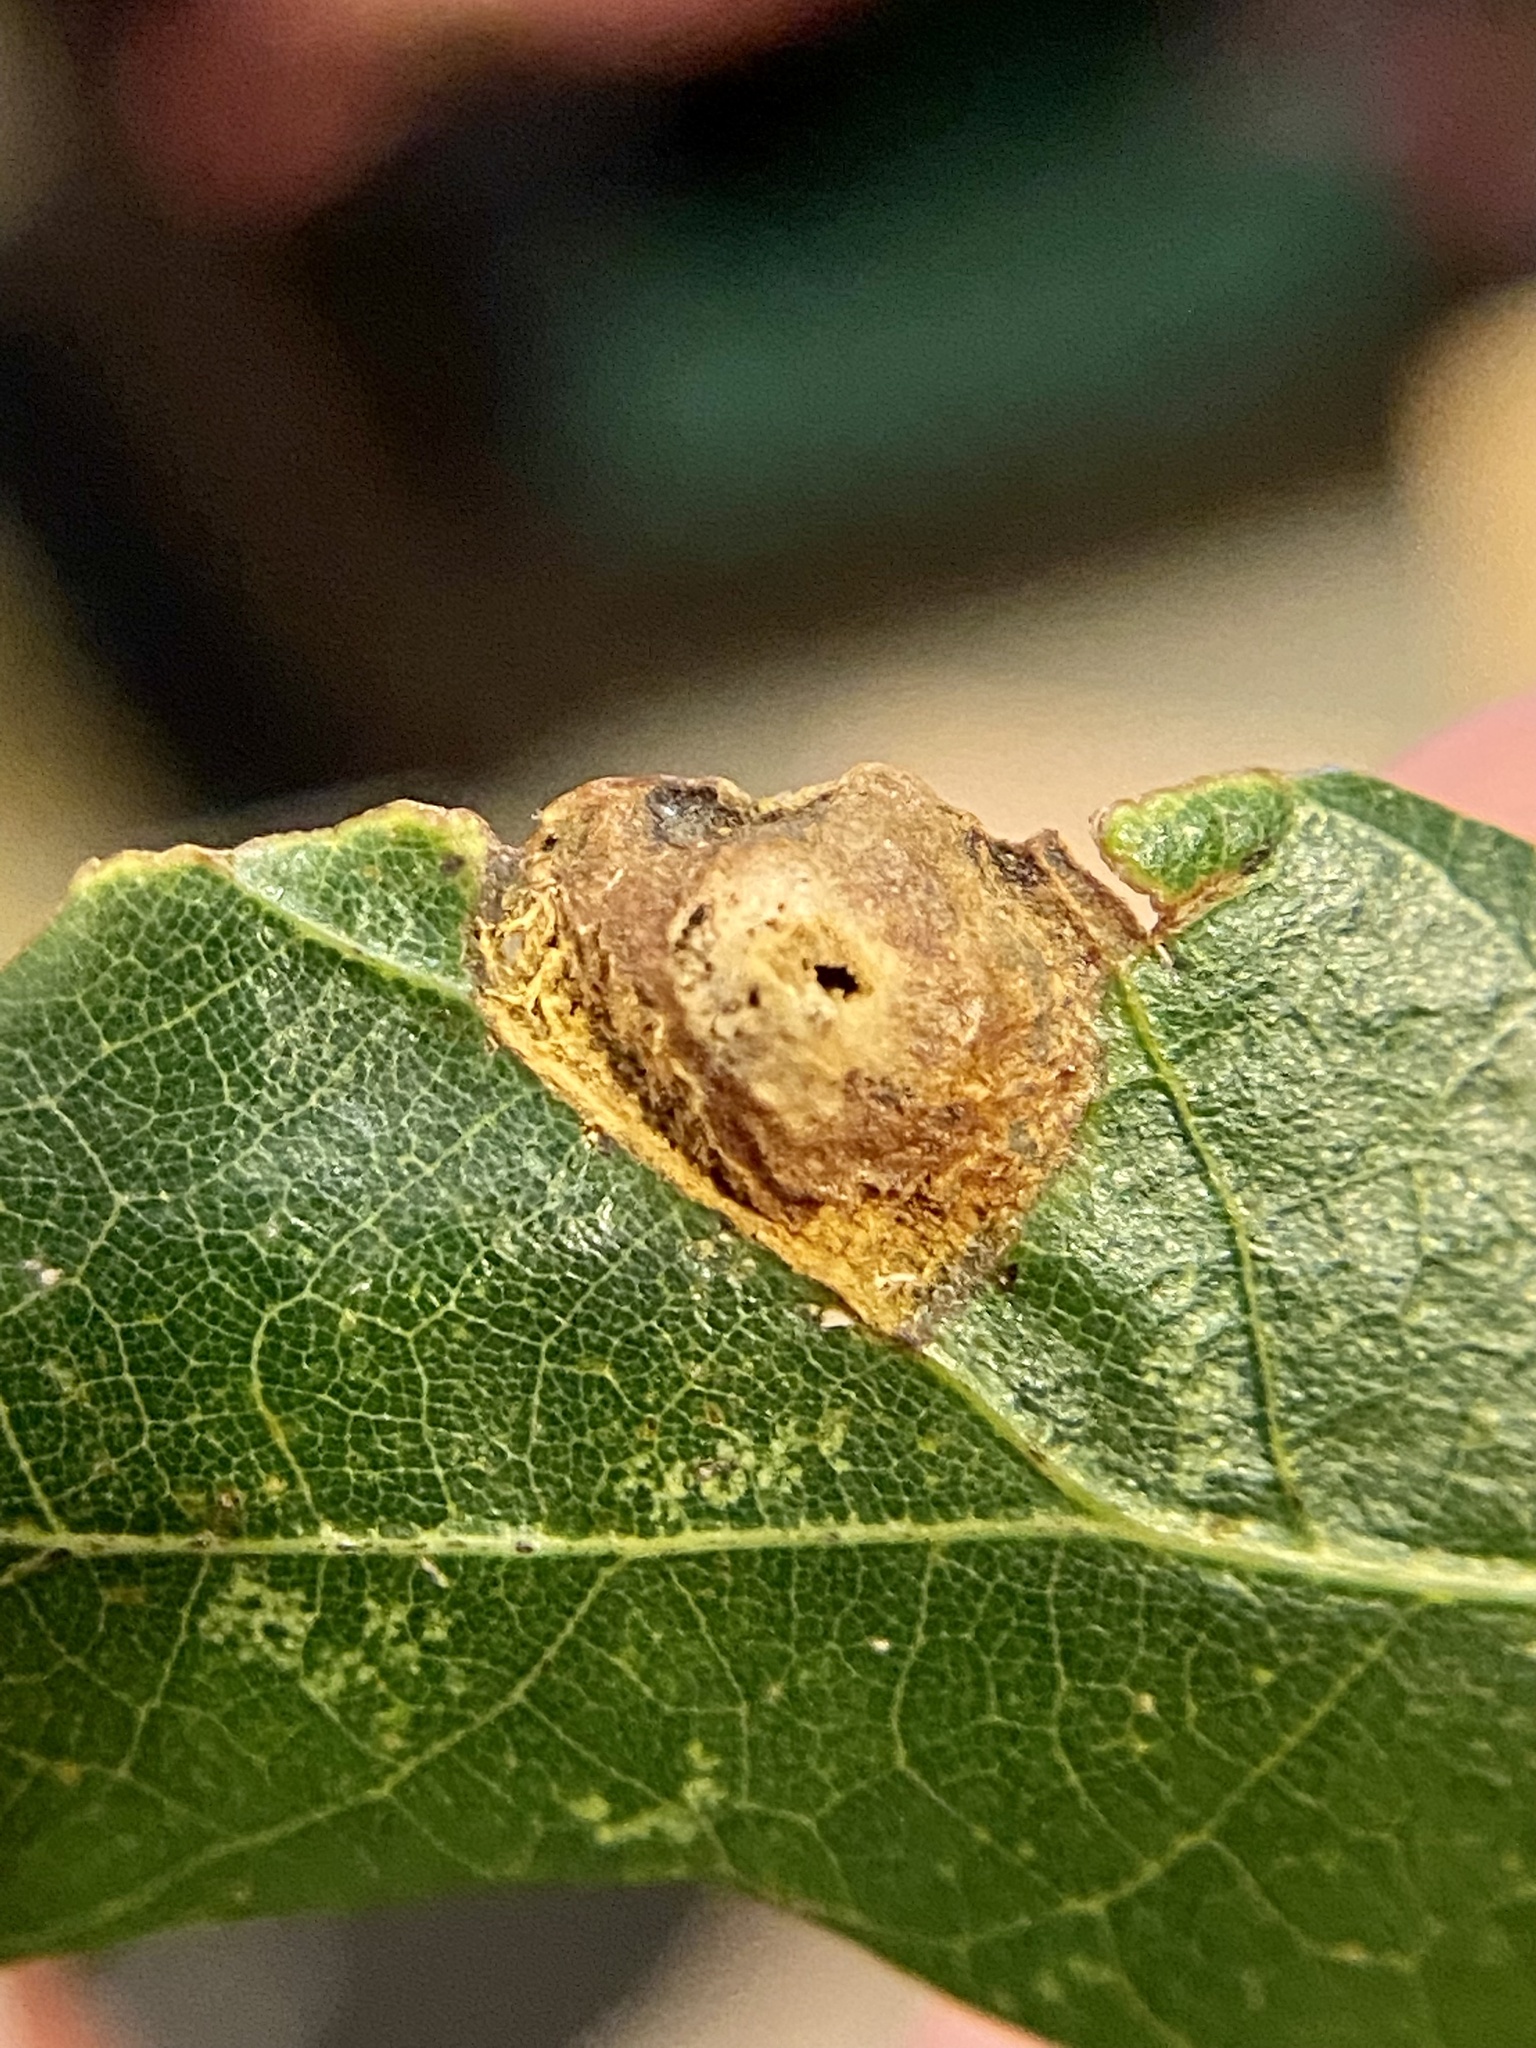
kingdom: Animalia
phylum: Arthropoda
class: Insecta
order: Hymenoptera
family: Cynipidae
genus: Callirhytis
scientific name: Callirhytis
